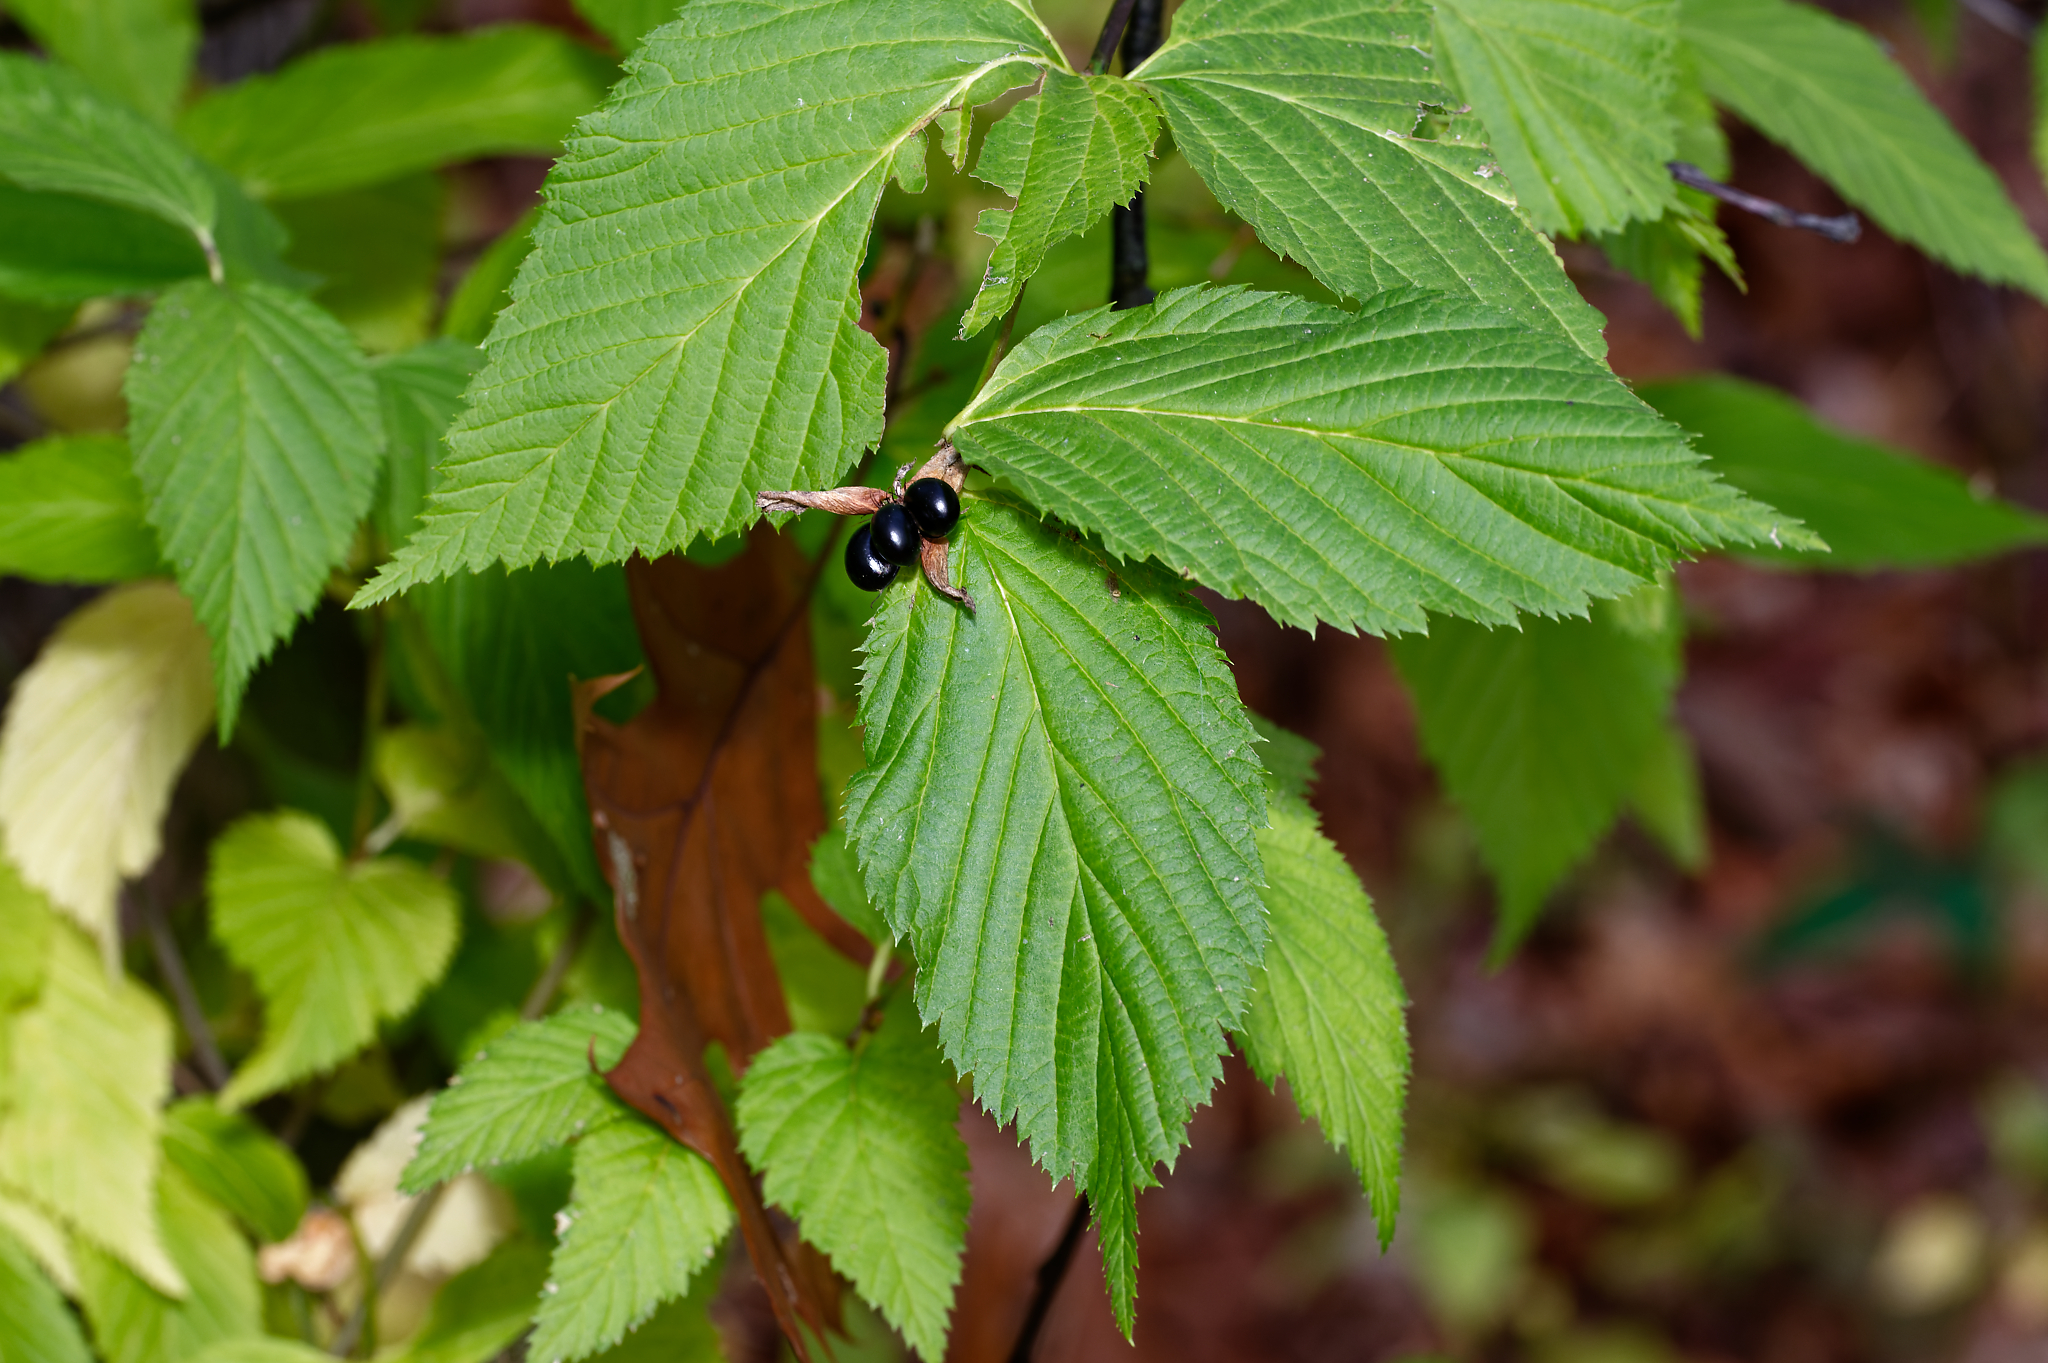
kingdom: Plantae
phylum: Tracheophyta
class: Magnoliopsida
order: Rosales
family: Rosaceae
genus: Rhodotypos
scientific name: Rhodotypos scandens
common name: Jetbead
